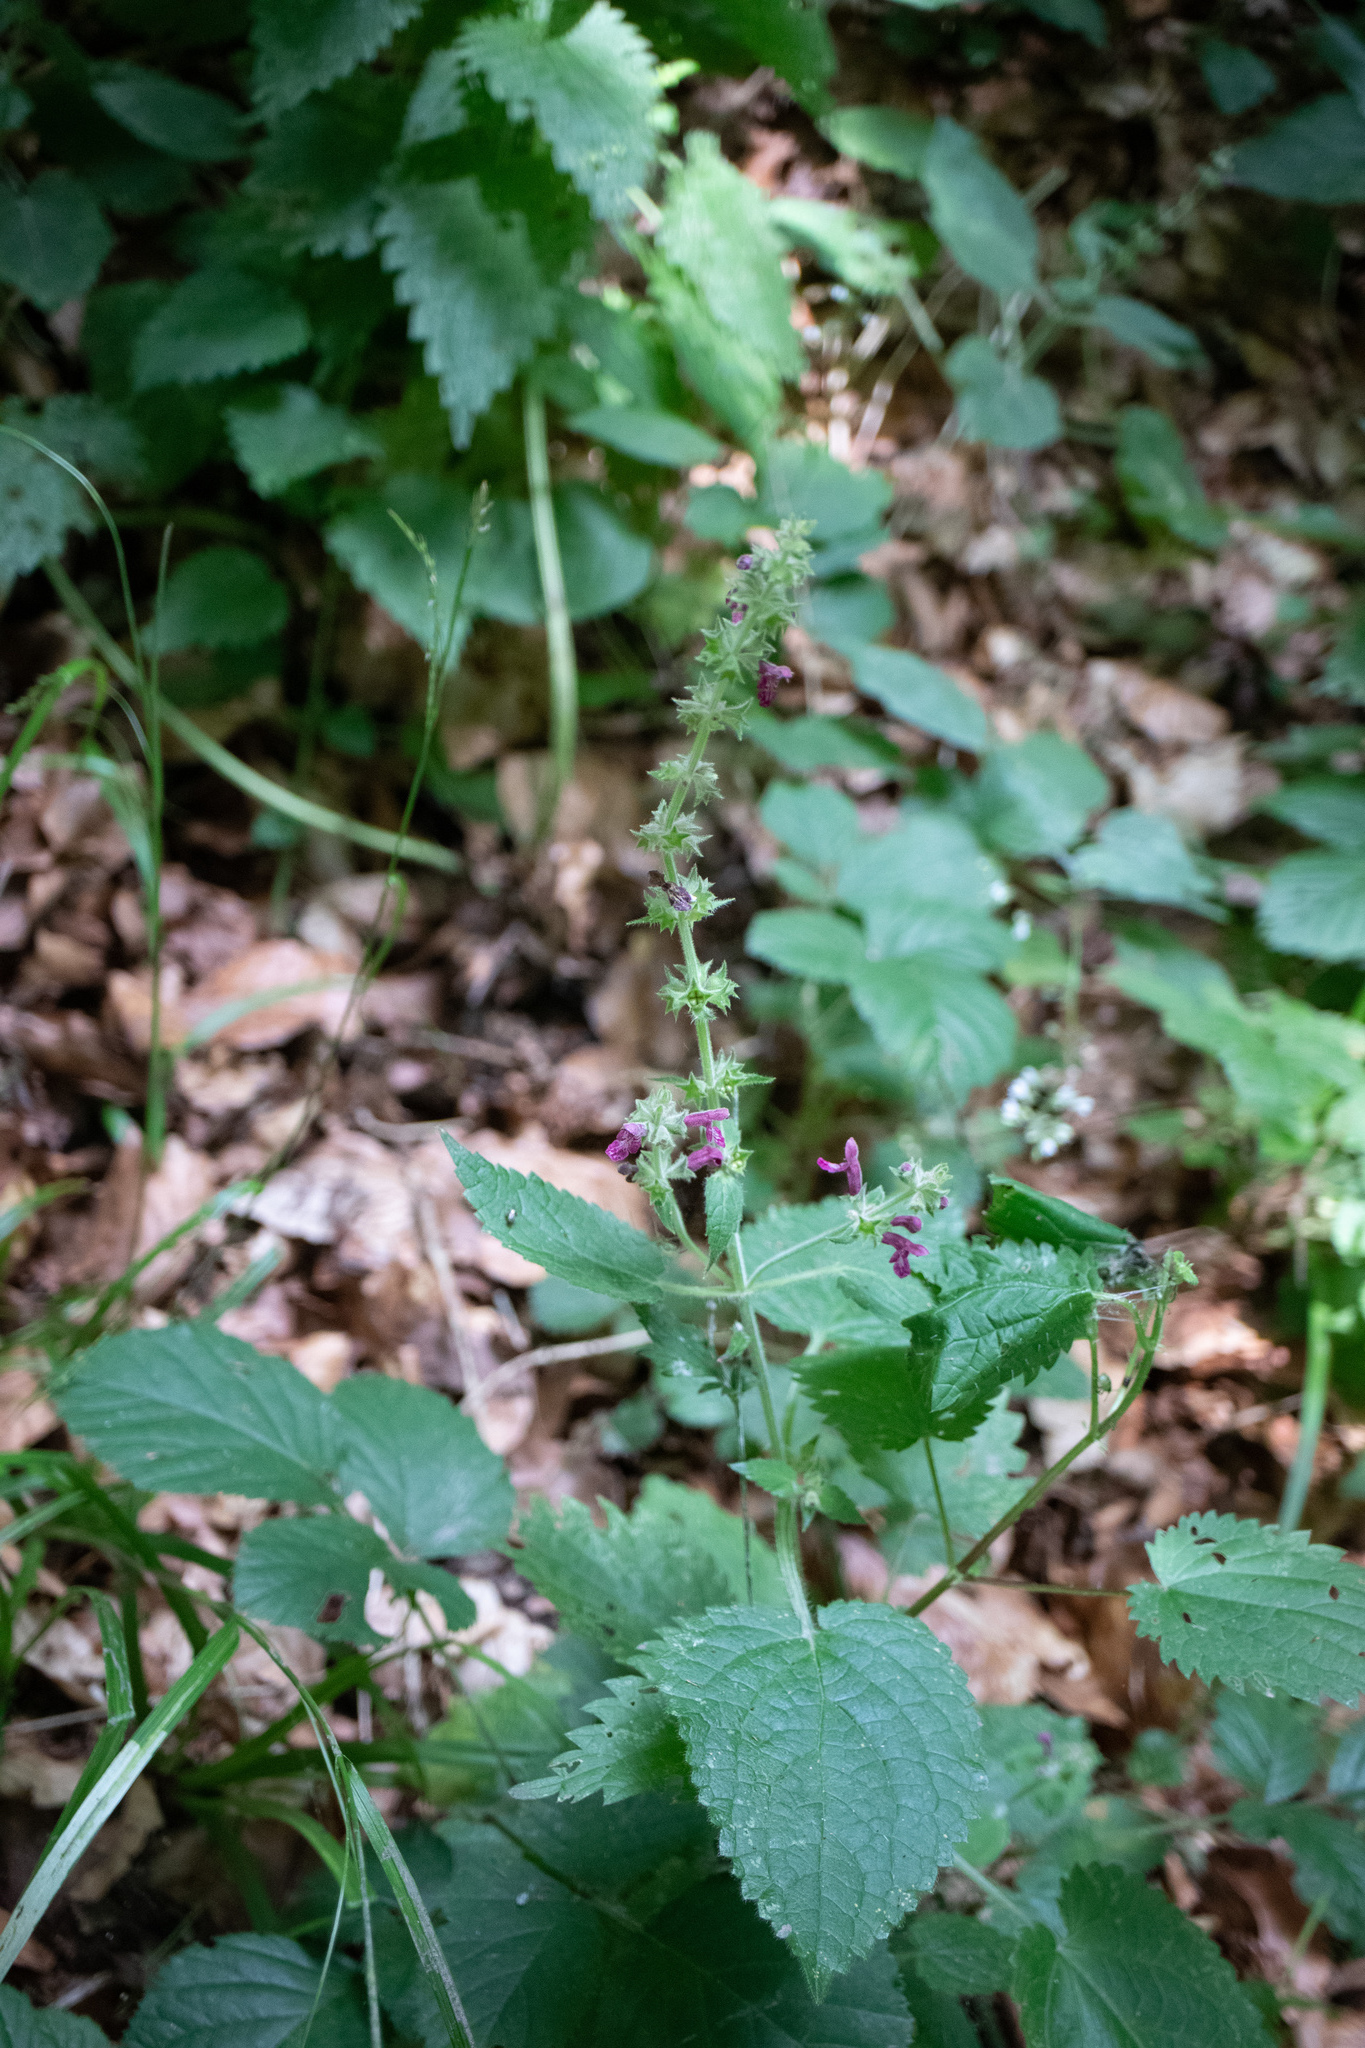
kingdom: Plantae
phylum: Tracheophyta
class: Magnoliopsida
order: Lamiales
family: Lamiaceae
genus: Stachys
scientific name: Stachys sylvatica
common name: Hedge woundwort
